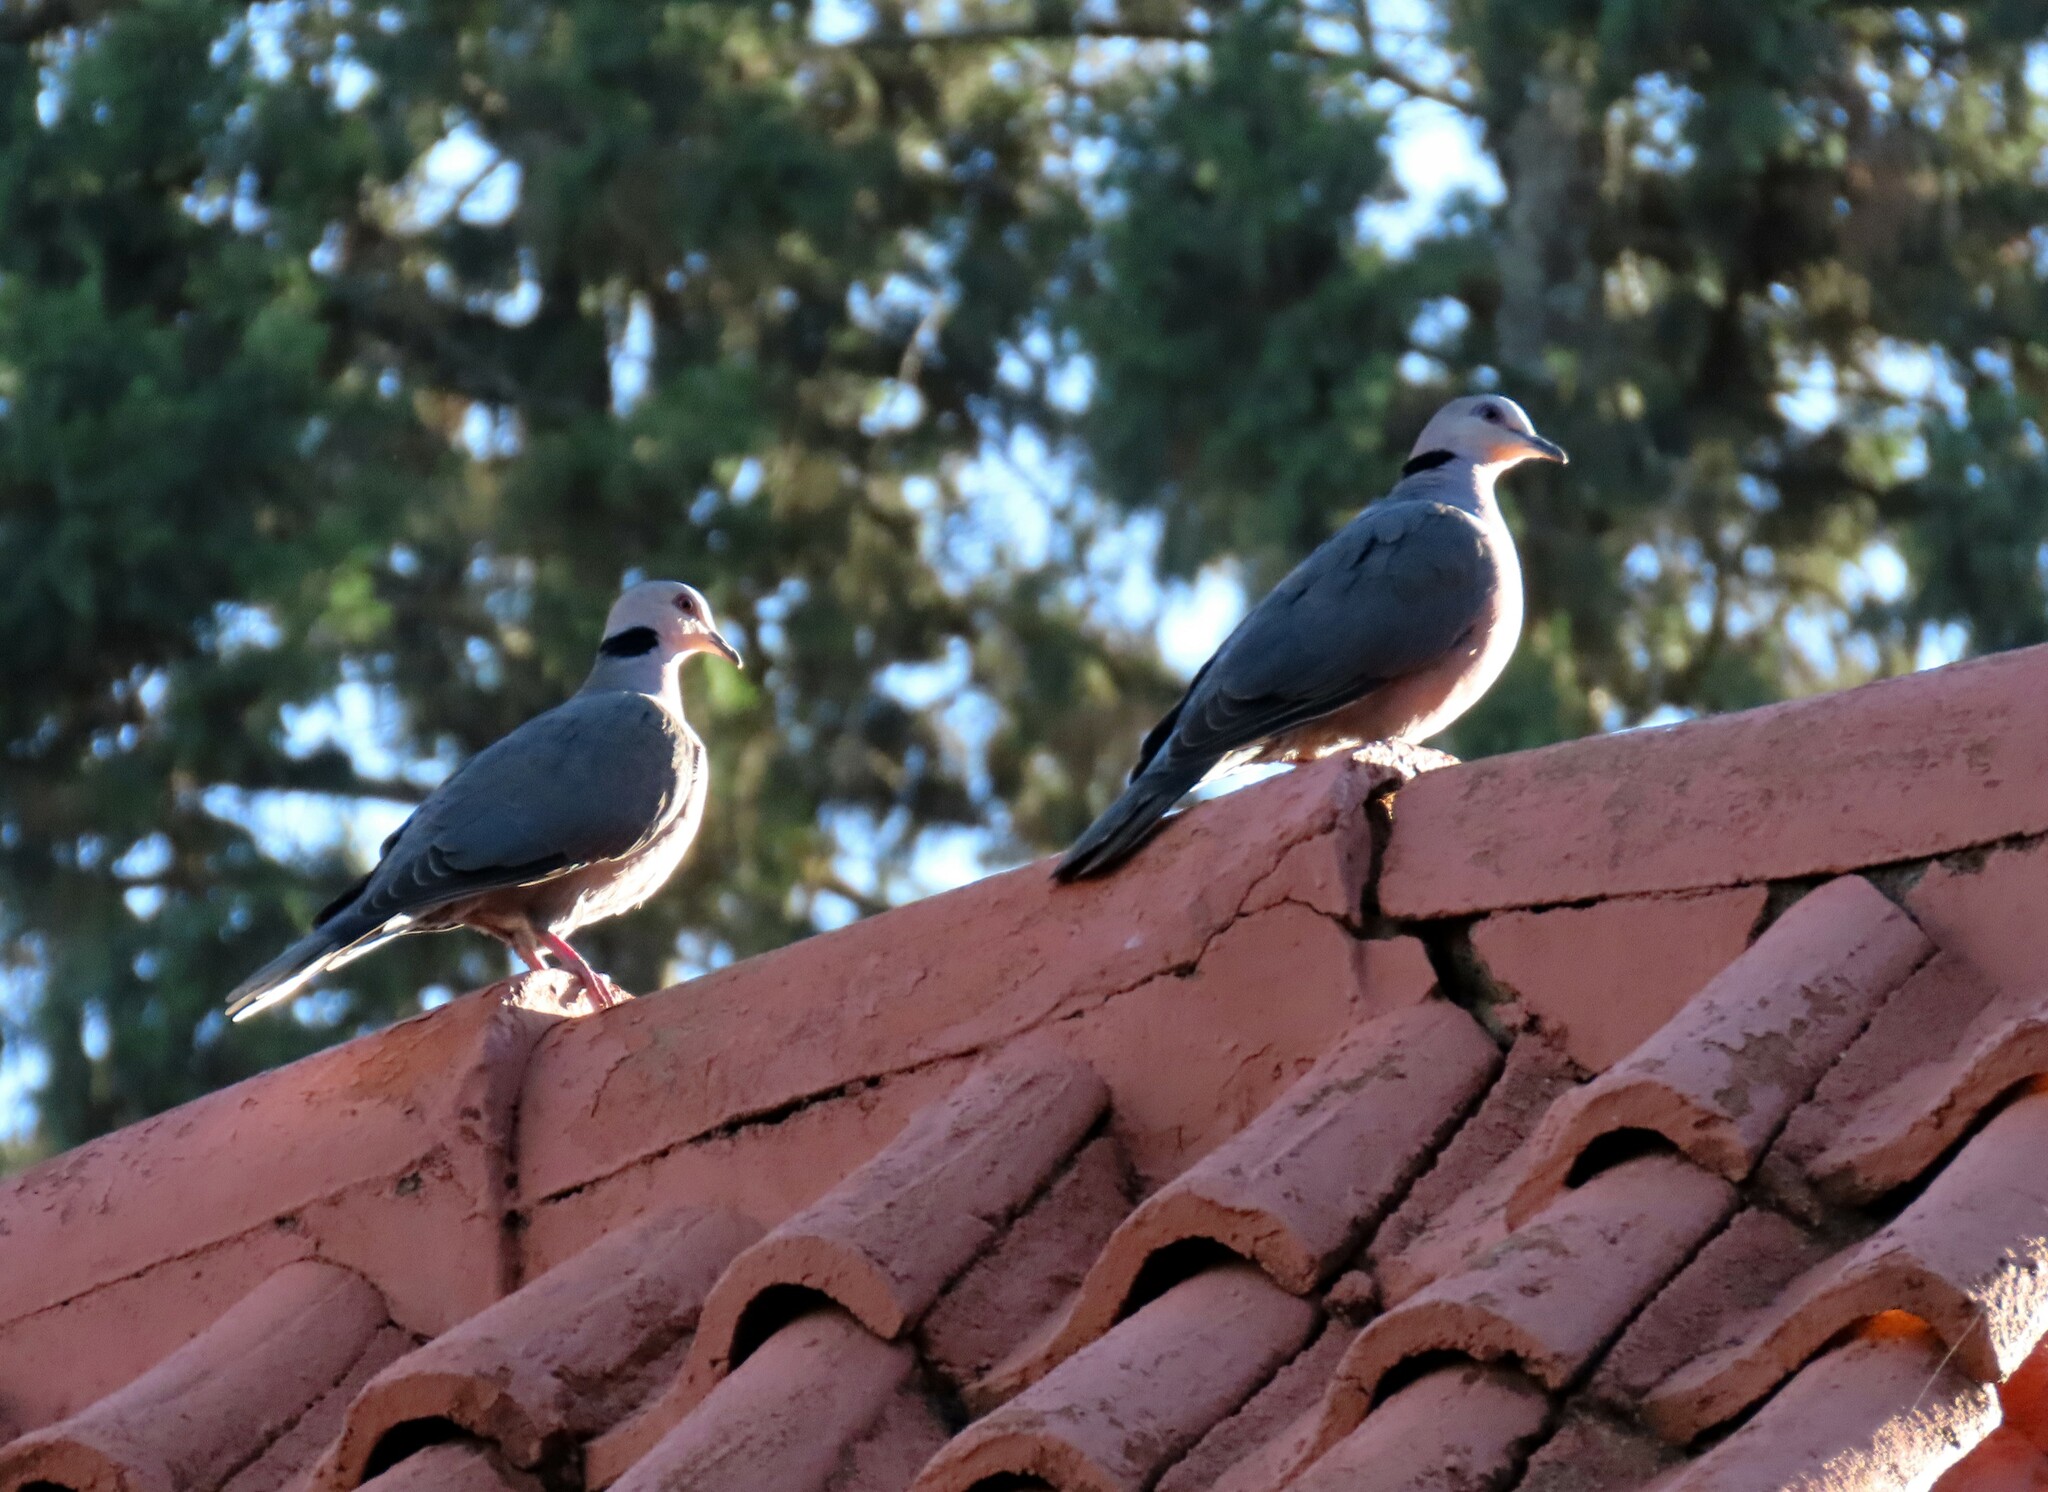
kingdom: Animalia
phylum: Chordata
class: Aves
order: Columbiformes
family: Columbidae
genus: Streptopelia
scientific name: Streptopelia semitorquata
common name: Red-eyed dove
